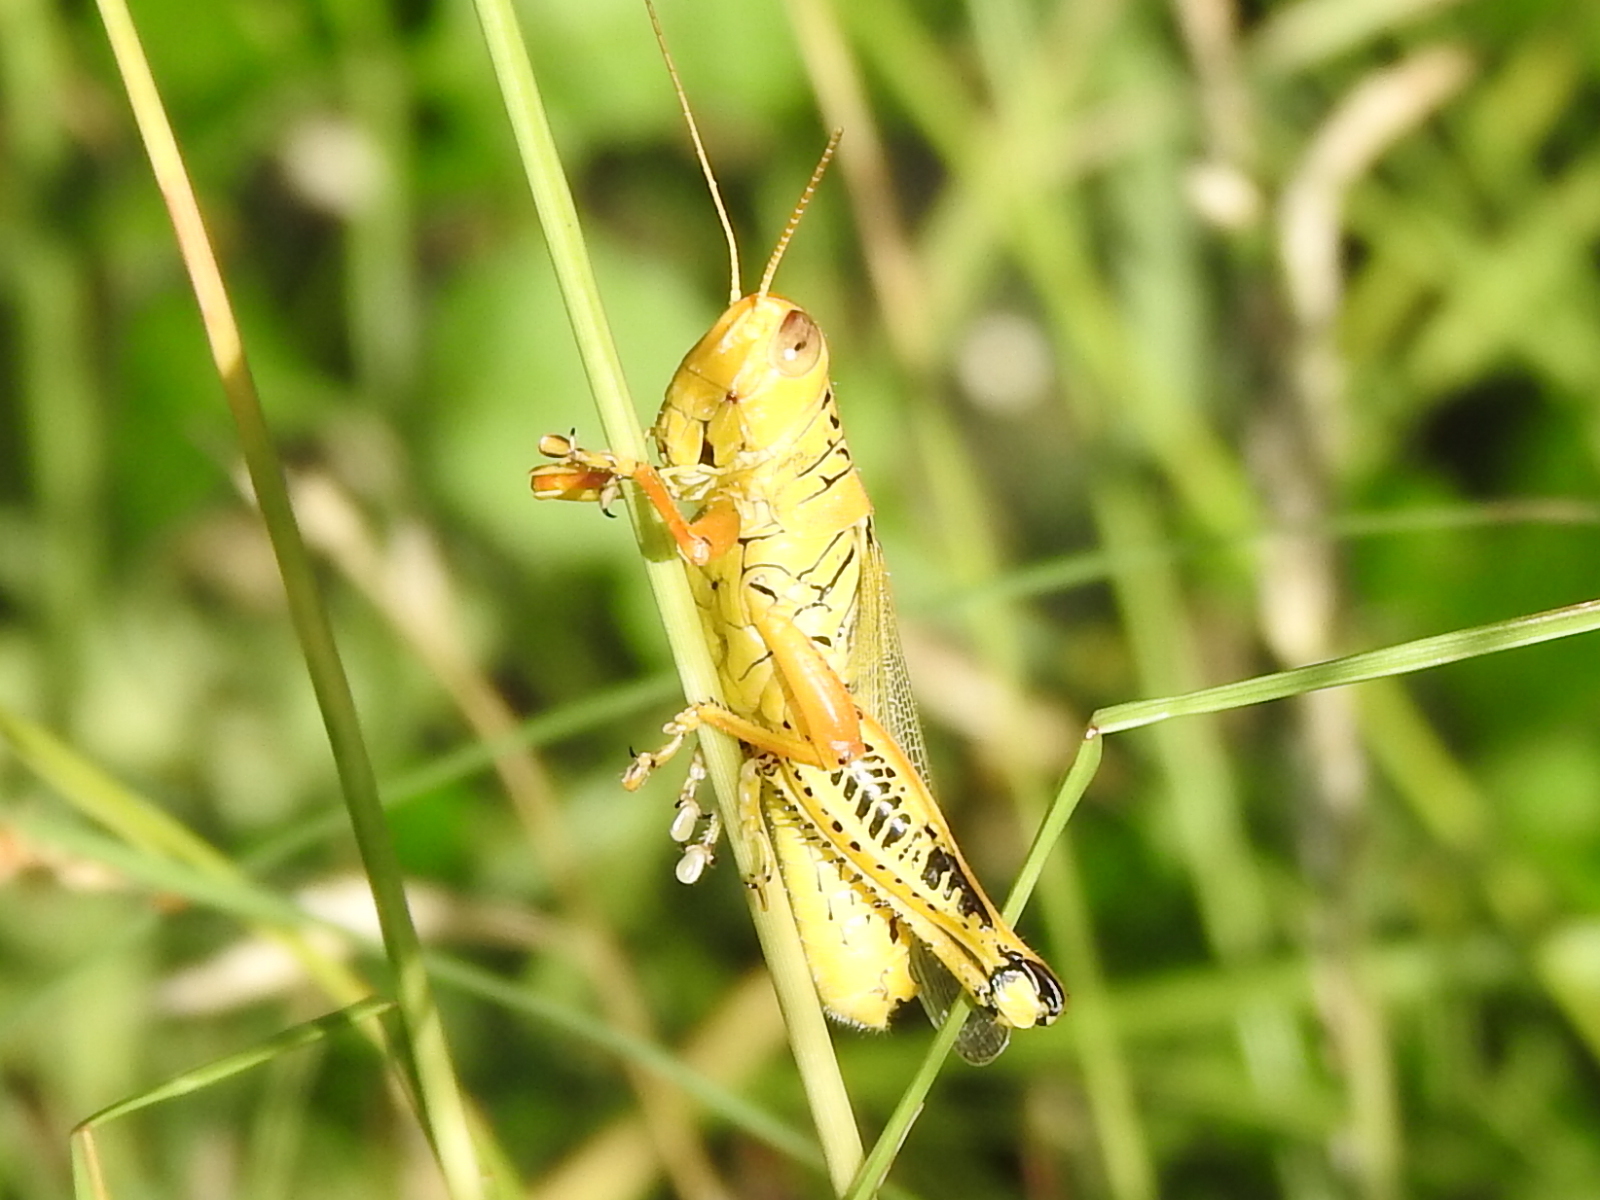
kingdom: Animalia
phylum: Arthropoda
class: Insecta
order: Orthoptera
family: Acrididae
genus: Melanoplus
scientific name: Melanoplus differentialis
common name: Differential grasshopper
